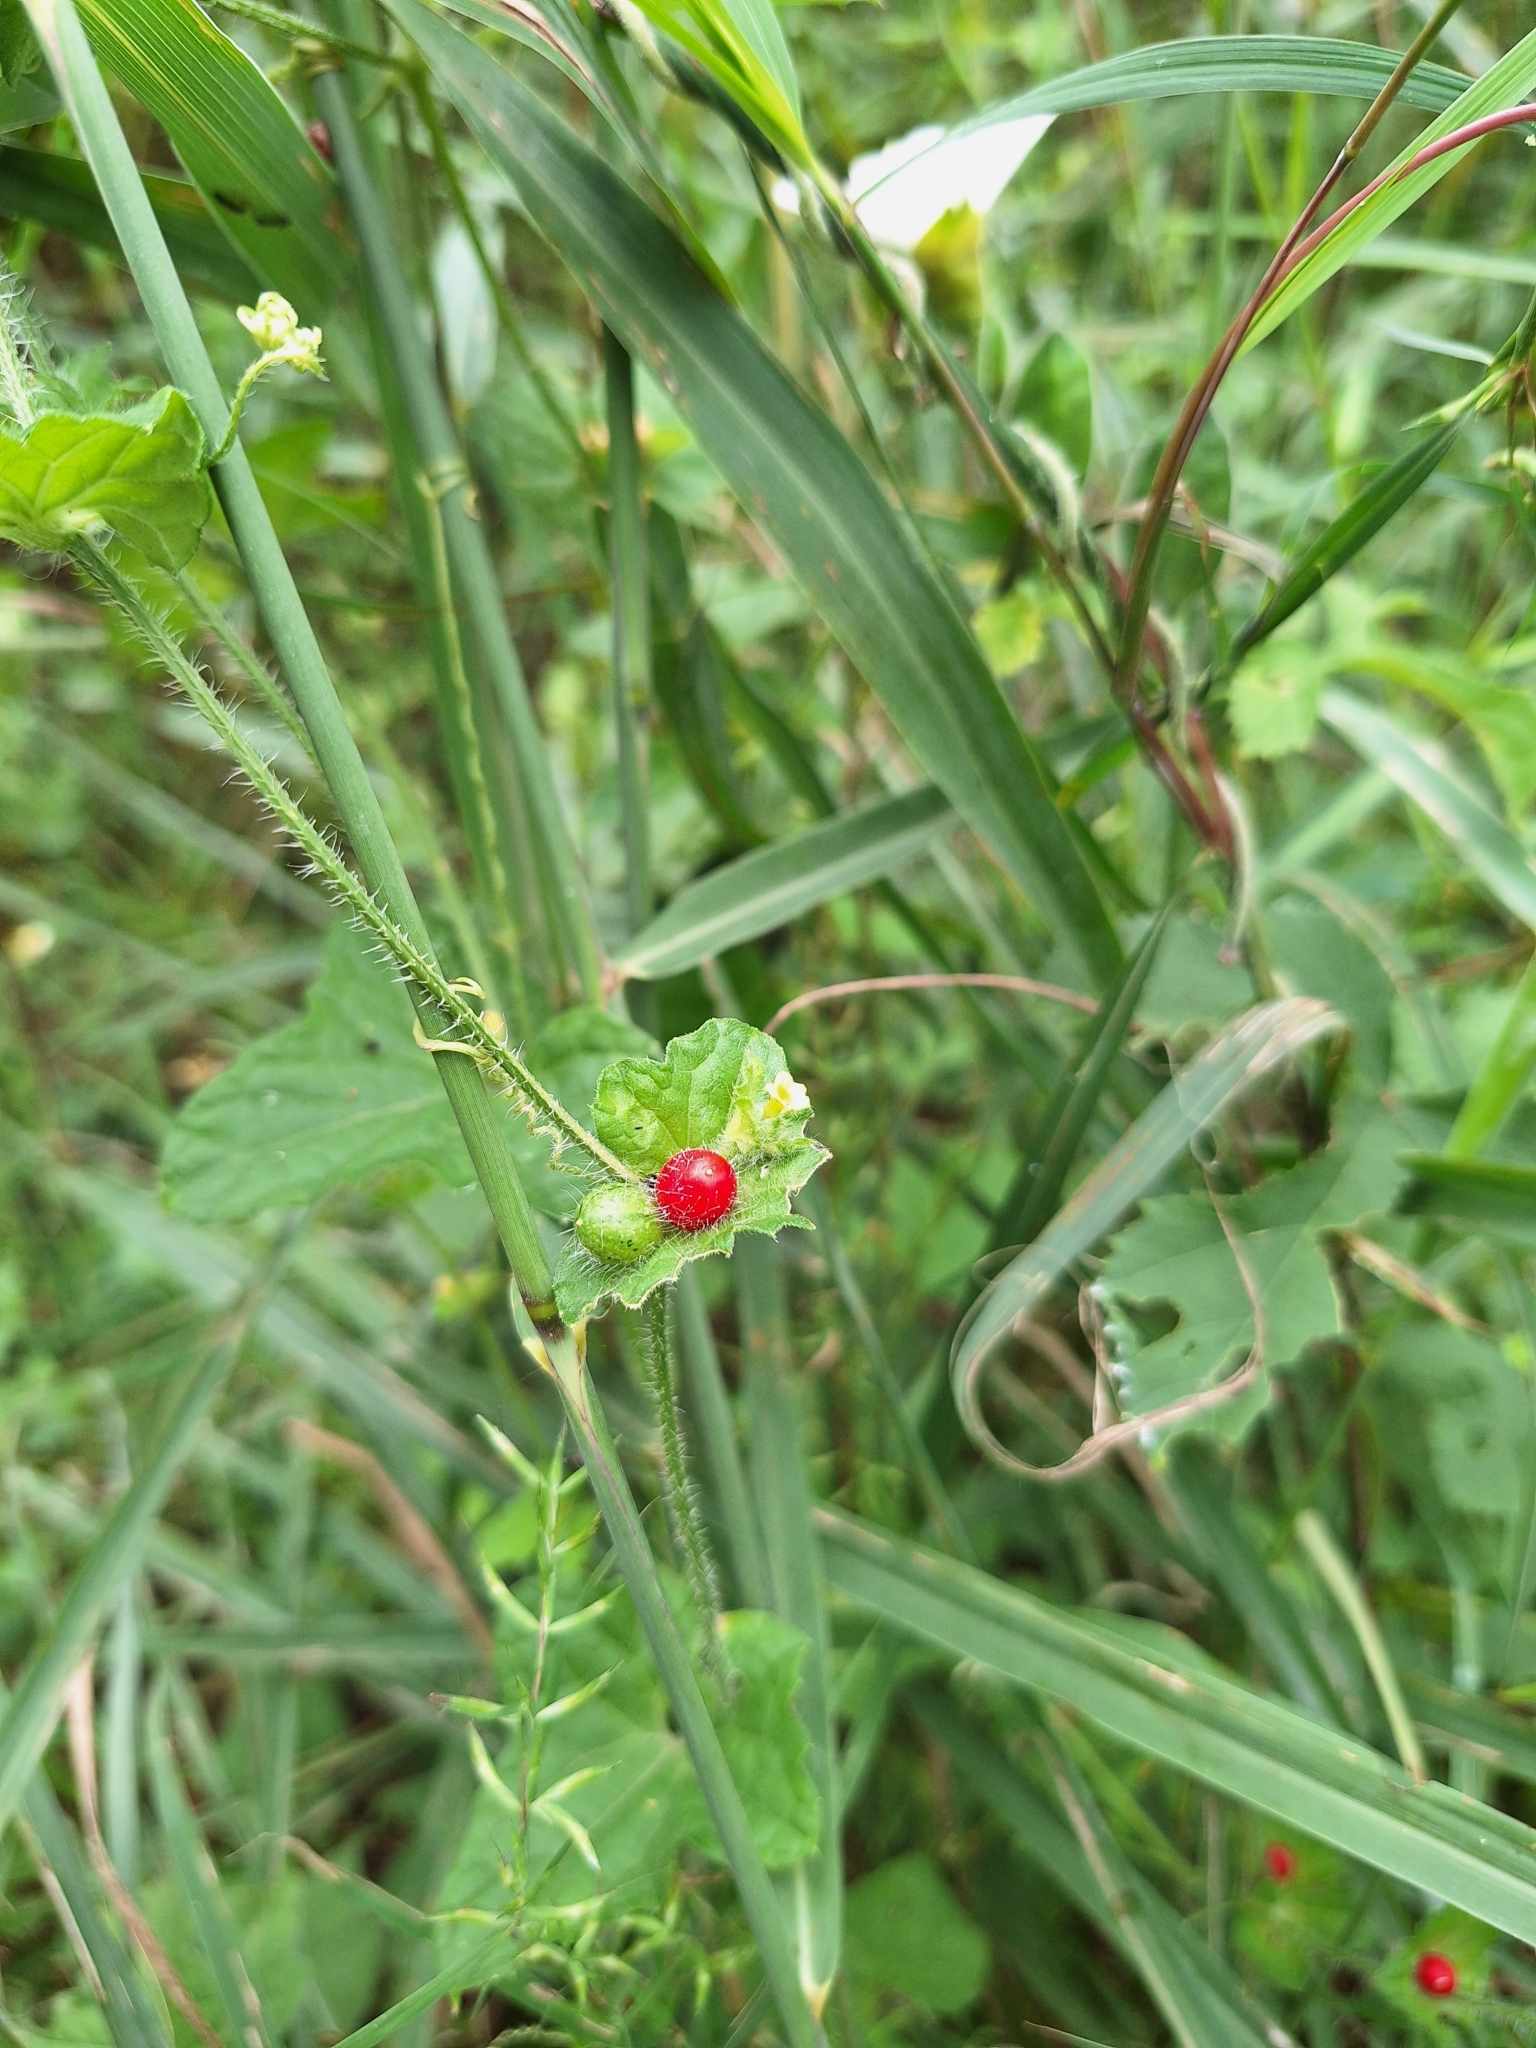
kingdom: Plantae
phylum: Tracheophyta
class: Magnoliopsida
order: Cucurbitales
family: Cucurbitaceae
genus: Cucumis
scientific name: Cucumis maderaspatanus
